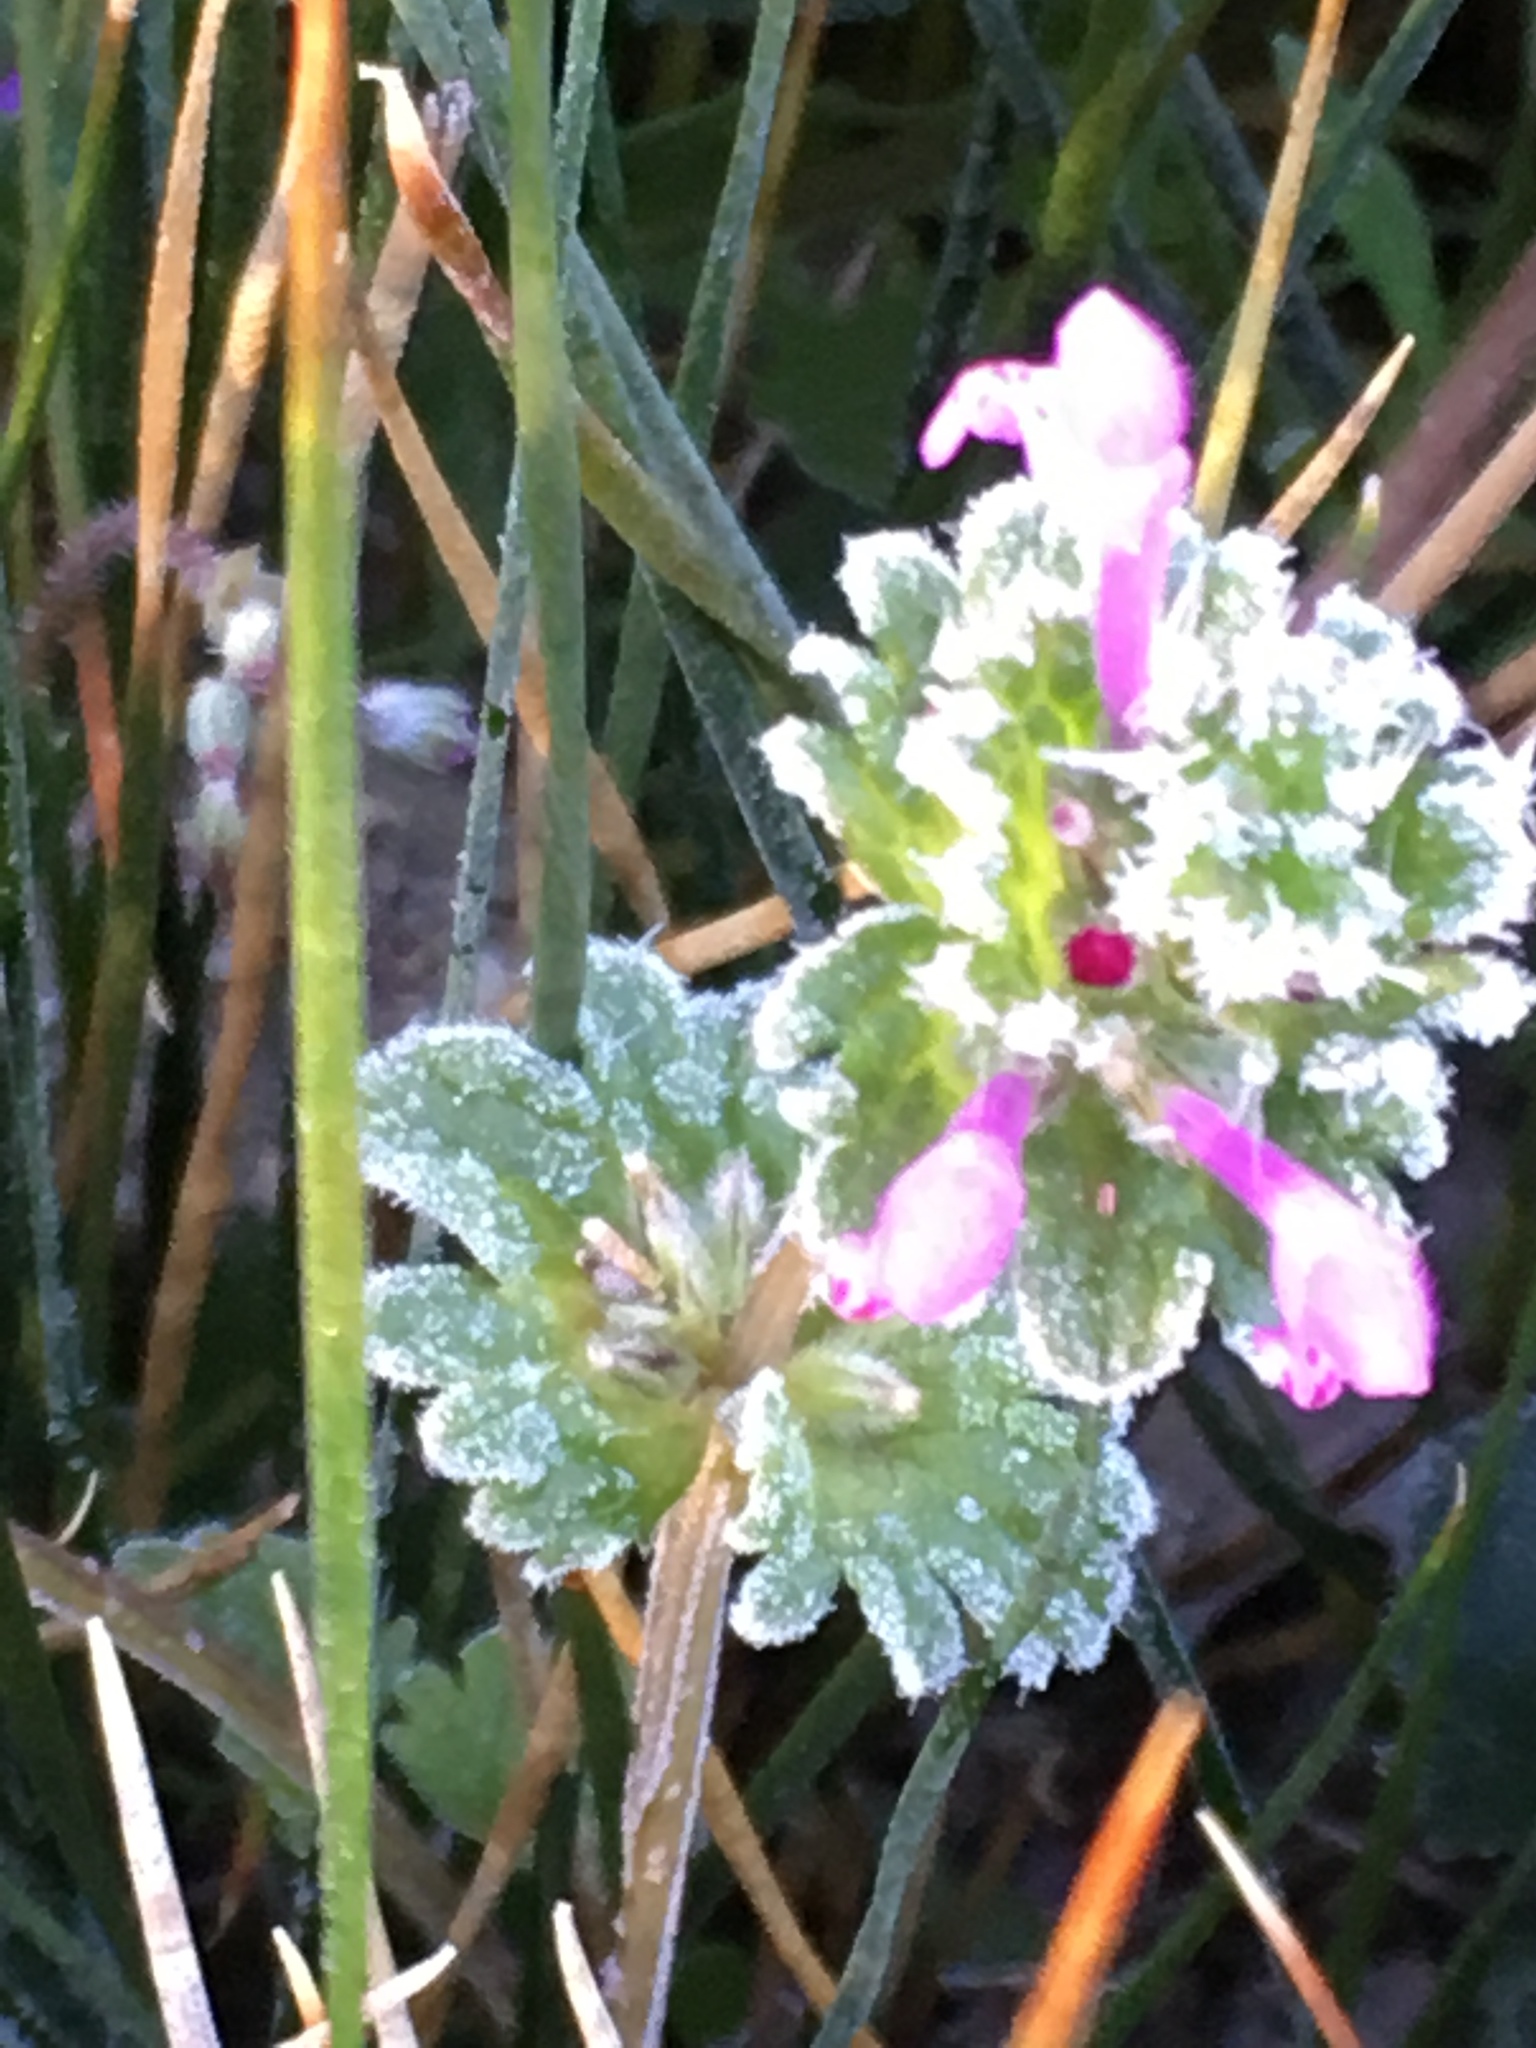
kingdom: Plantae
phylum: Tracheophyta
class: Magnoliopsida
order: Lamiales
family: Lamiaceae
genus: Lamium
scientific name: Lamium amplexicaule
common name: Henbit dead-nettle
